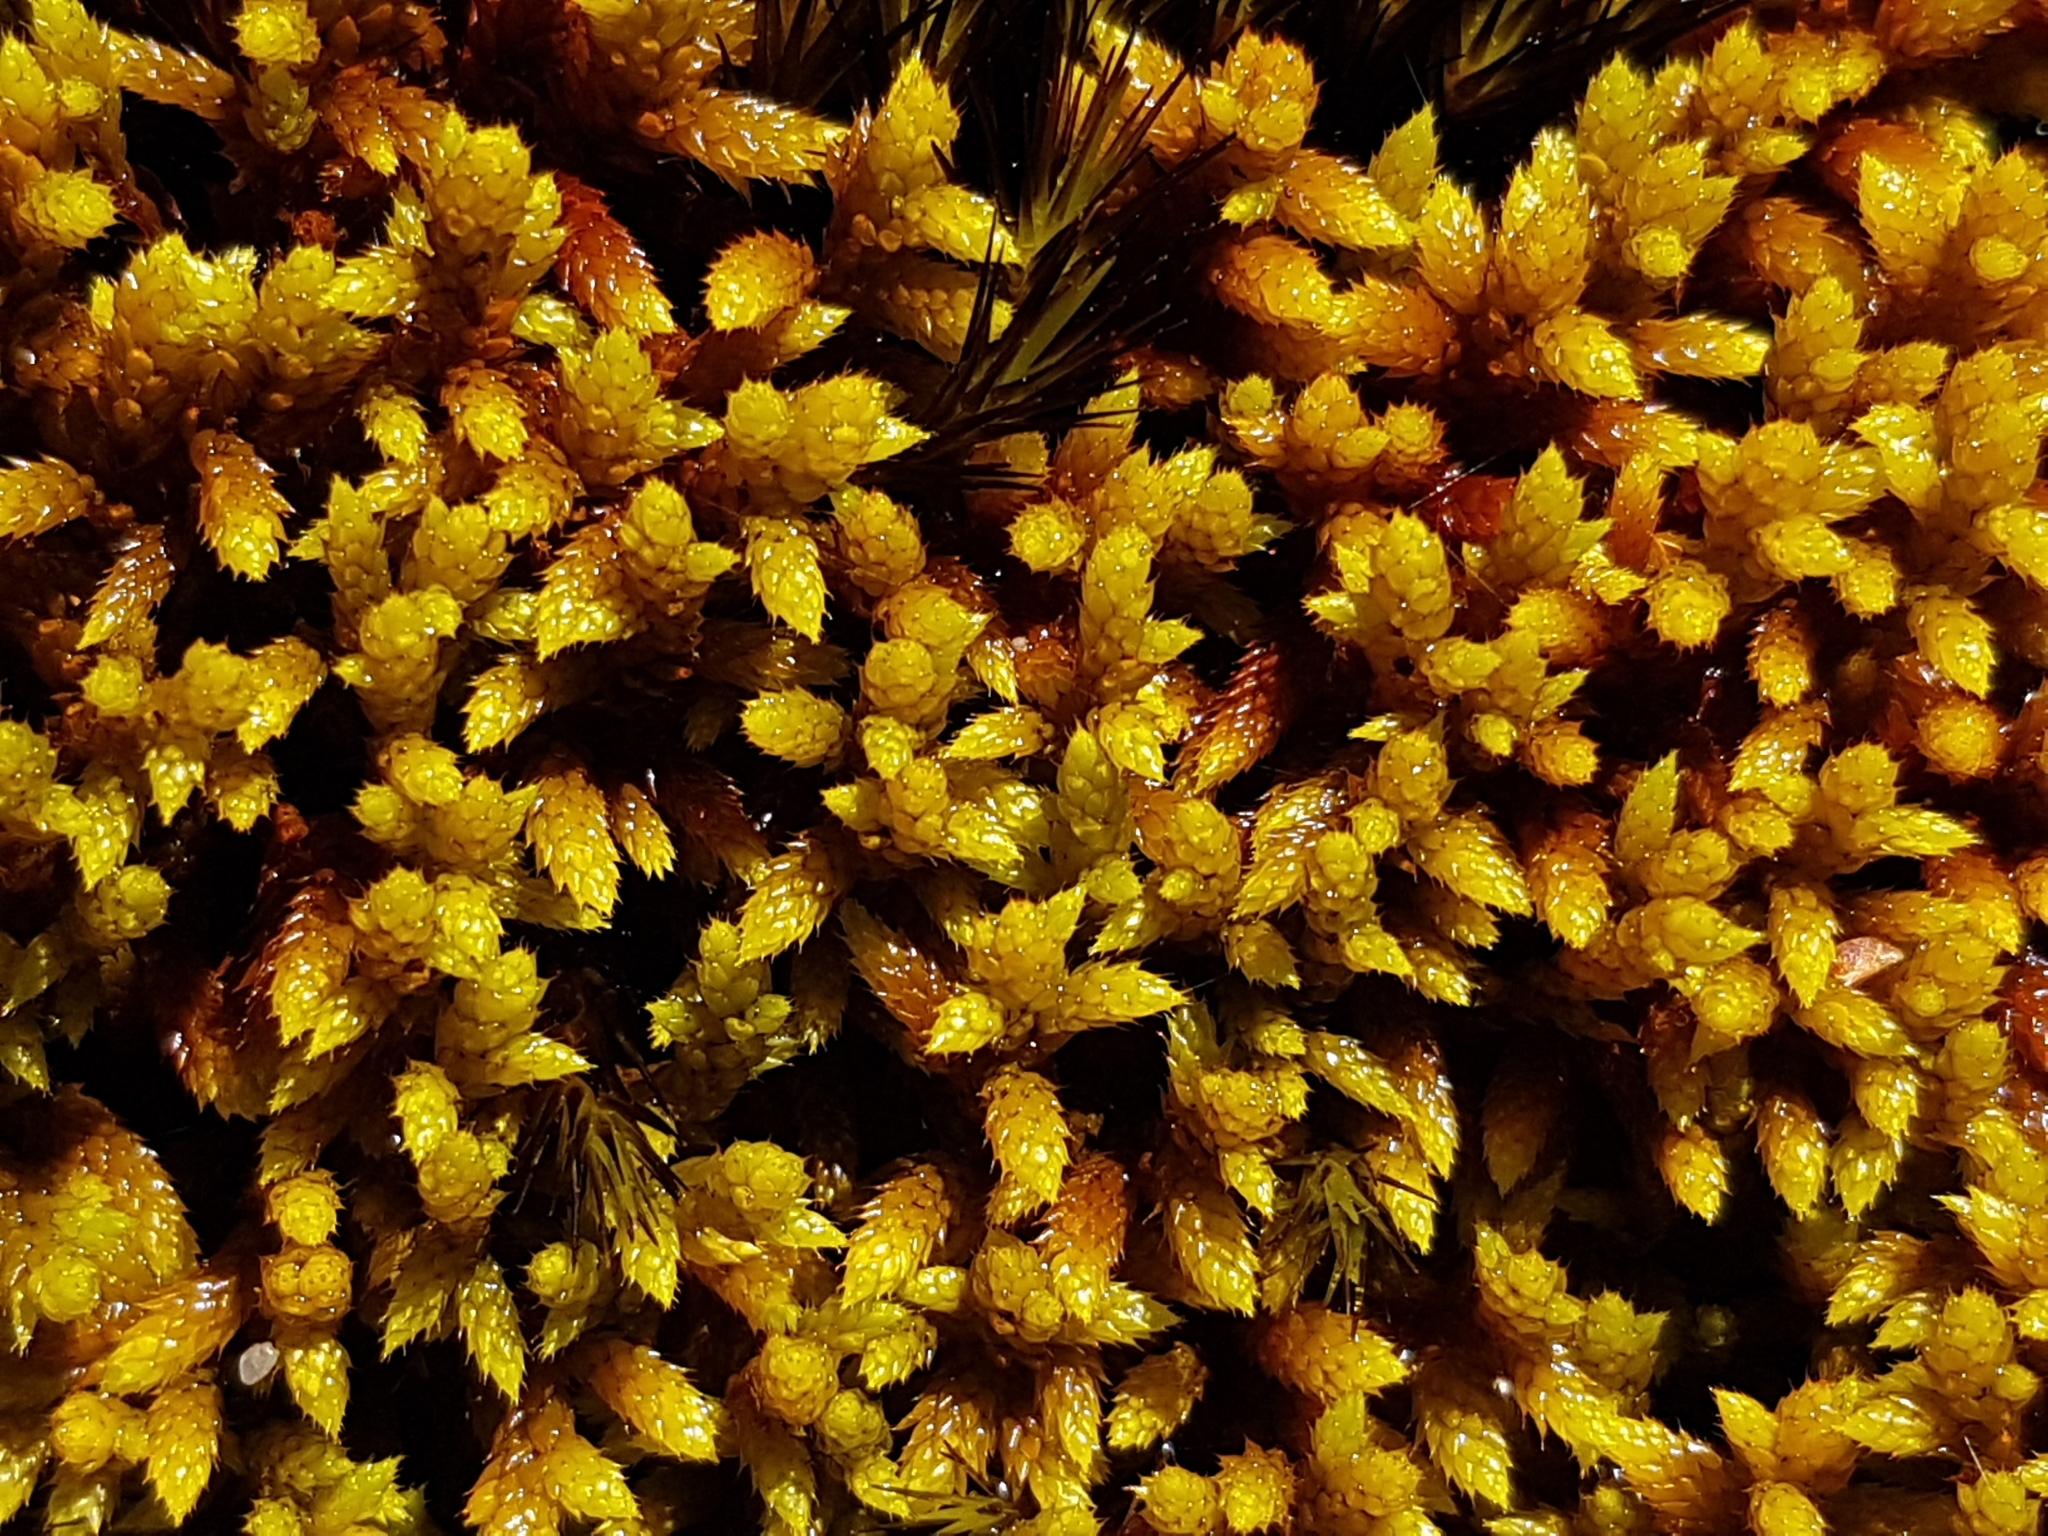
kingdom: Plantae
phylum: Bryophyta
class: Bryopsida
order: Hedwigiales
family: Hedwigiaceae
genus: Rhacocarpus
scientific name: Rhacocarpus purpurascens
